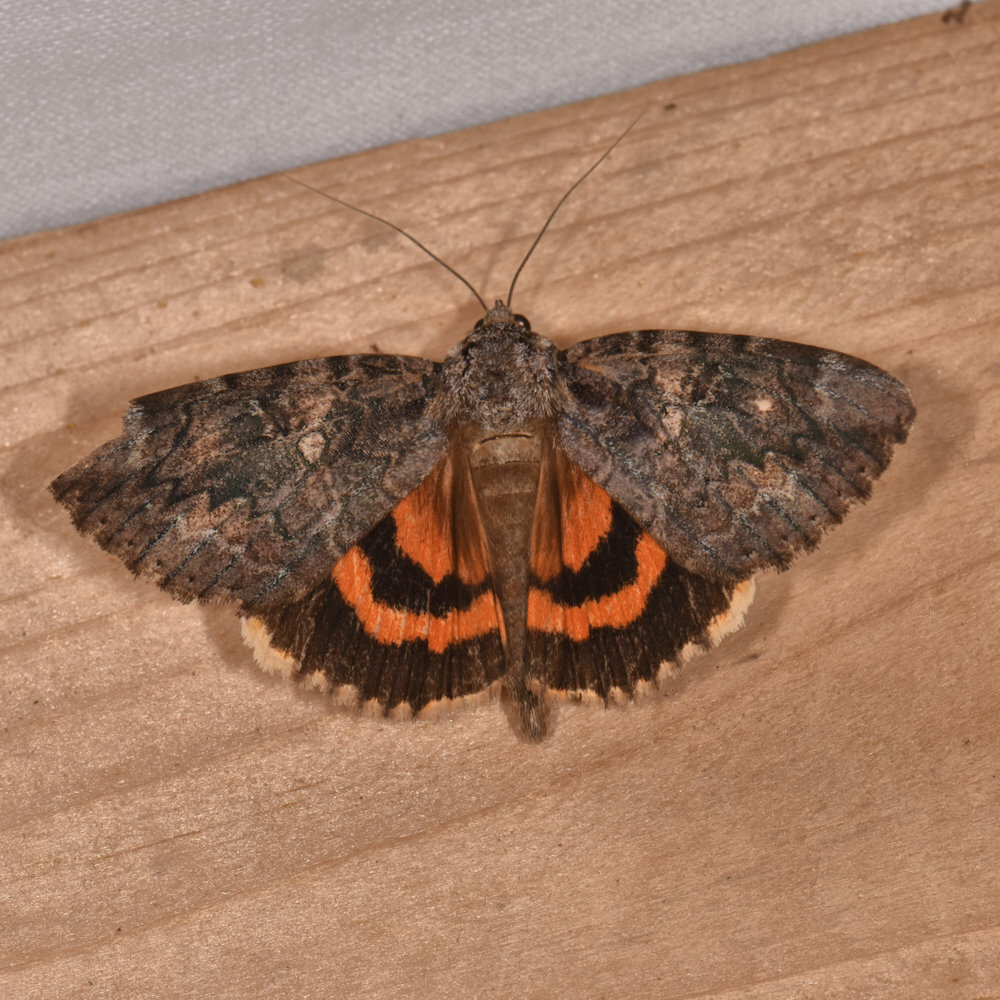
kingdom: Animalia
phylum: Arthropoda
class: Insecta
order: Lepidoptera
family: Erebidae
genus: Catocala
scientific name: Catocala innubens
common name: Betrothed underwing
